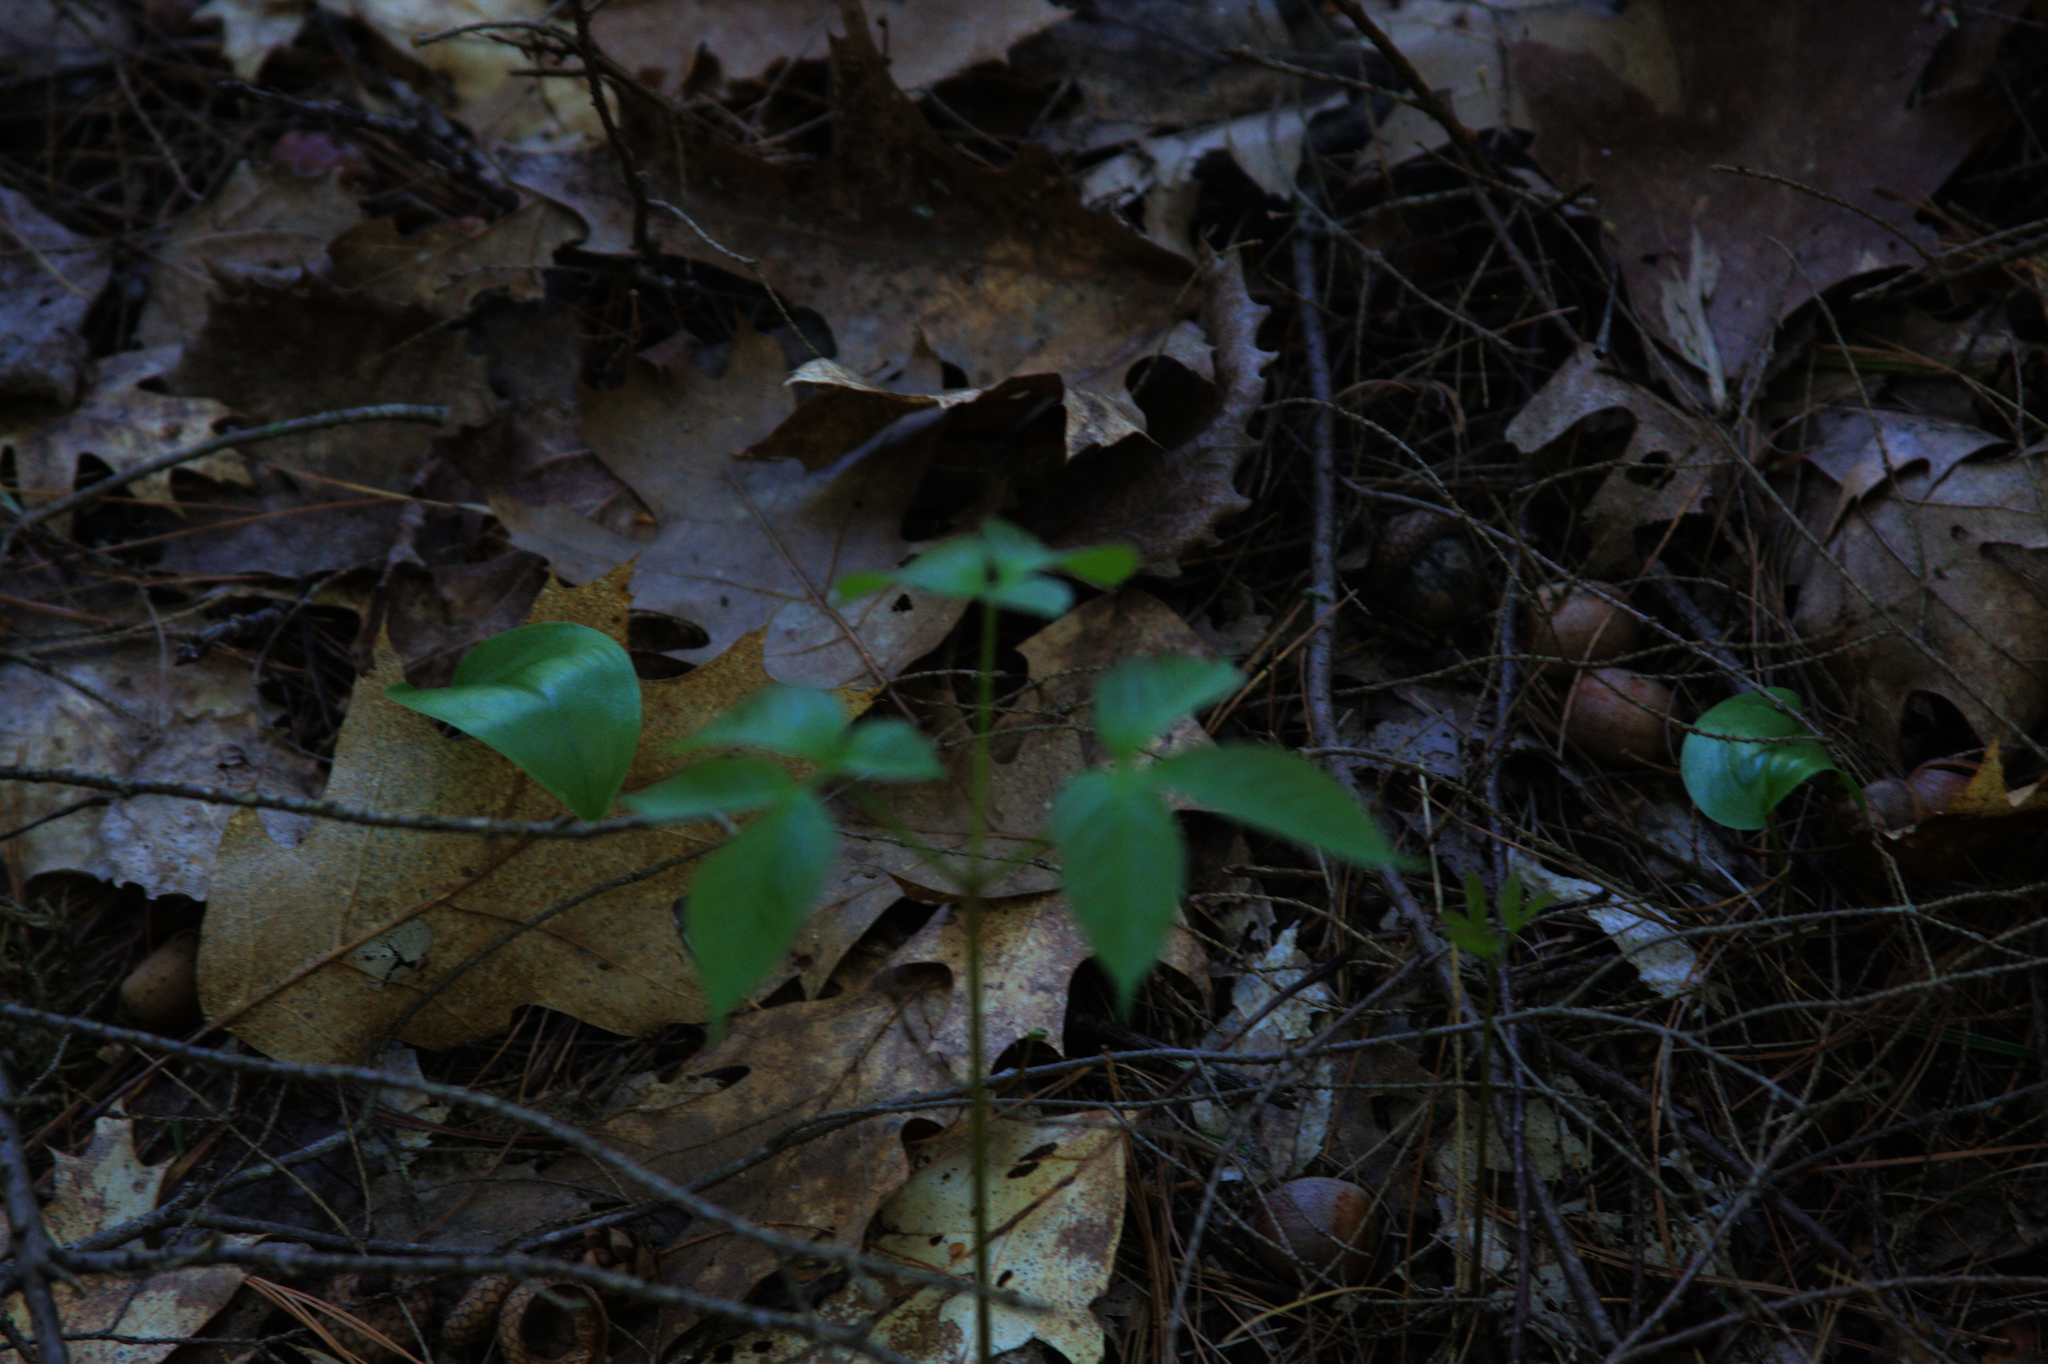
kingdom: Plantae
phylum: Tracheophyta
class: Liliopsida
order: Asparagales
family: Asparagaceae
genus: Maianthemum
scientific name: Maianthemum canadense
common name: False lily-of-the-valley
